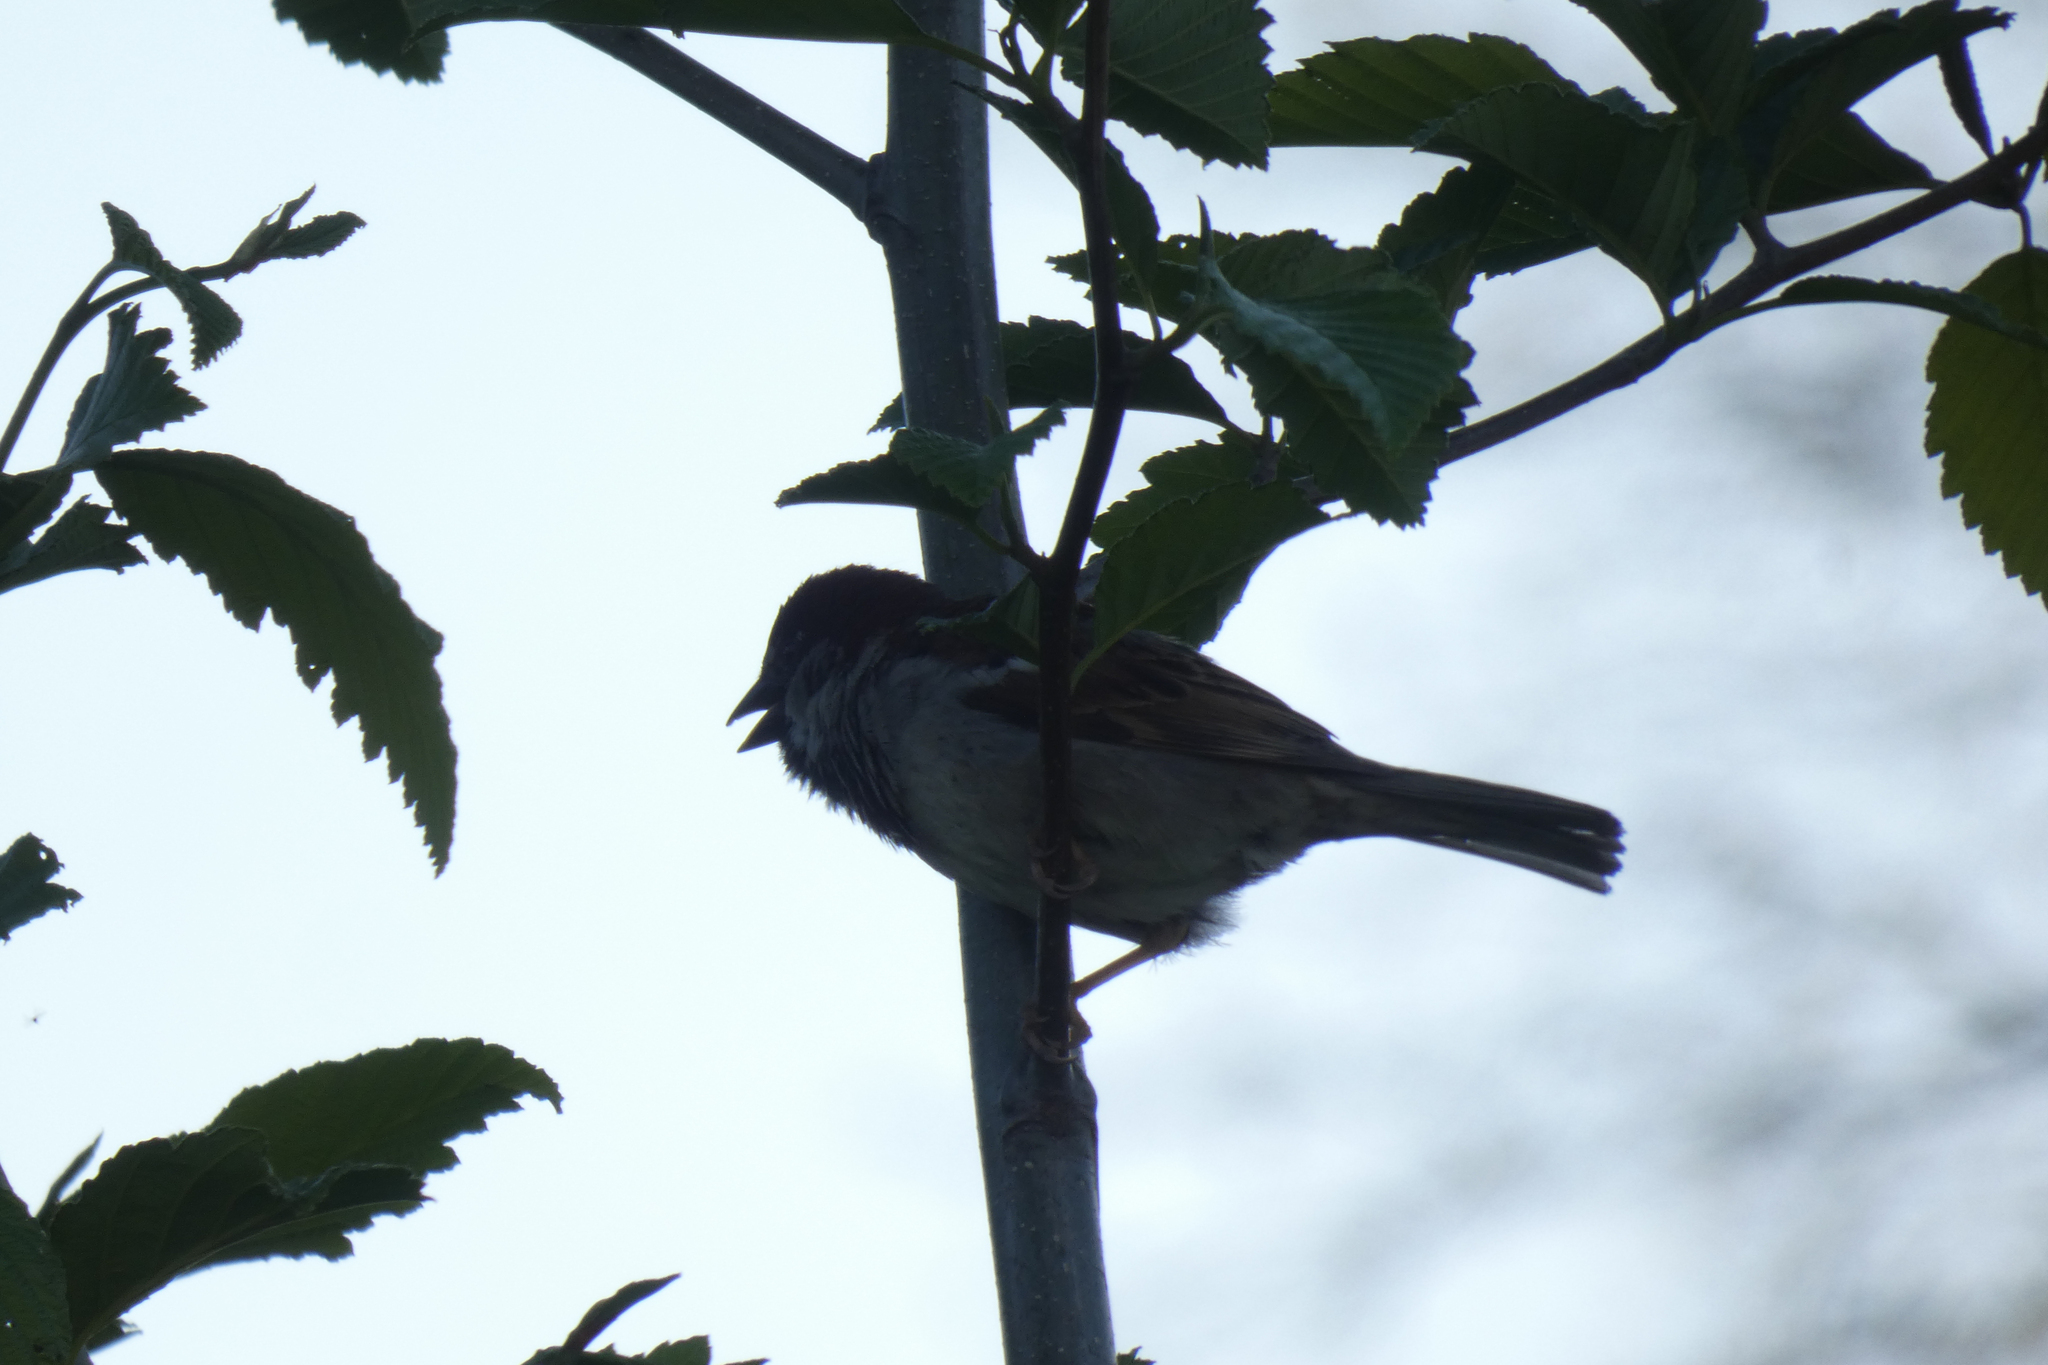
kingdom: Animalia
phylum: Chordata
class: Aves
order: Passeriformes
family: Passeridae
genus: Passer
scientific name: Passer domesticus
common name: House sparrow
